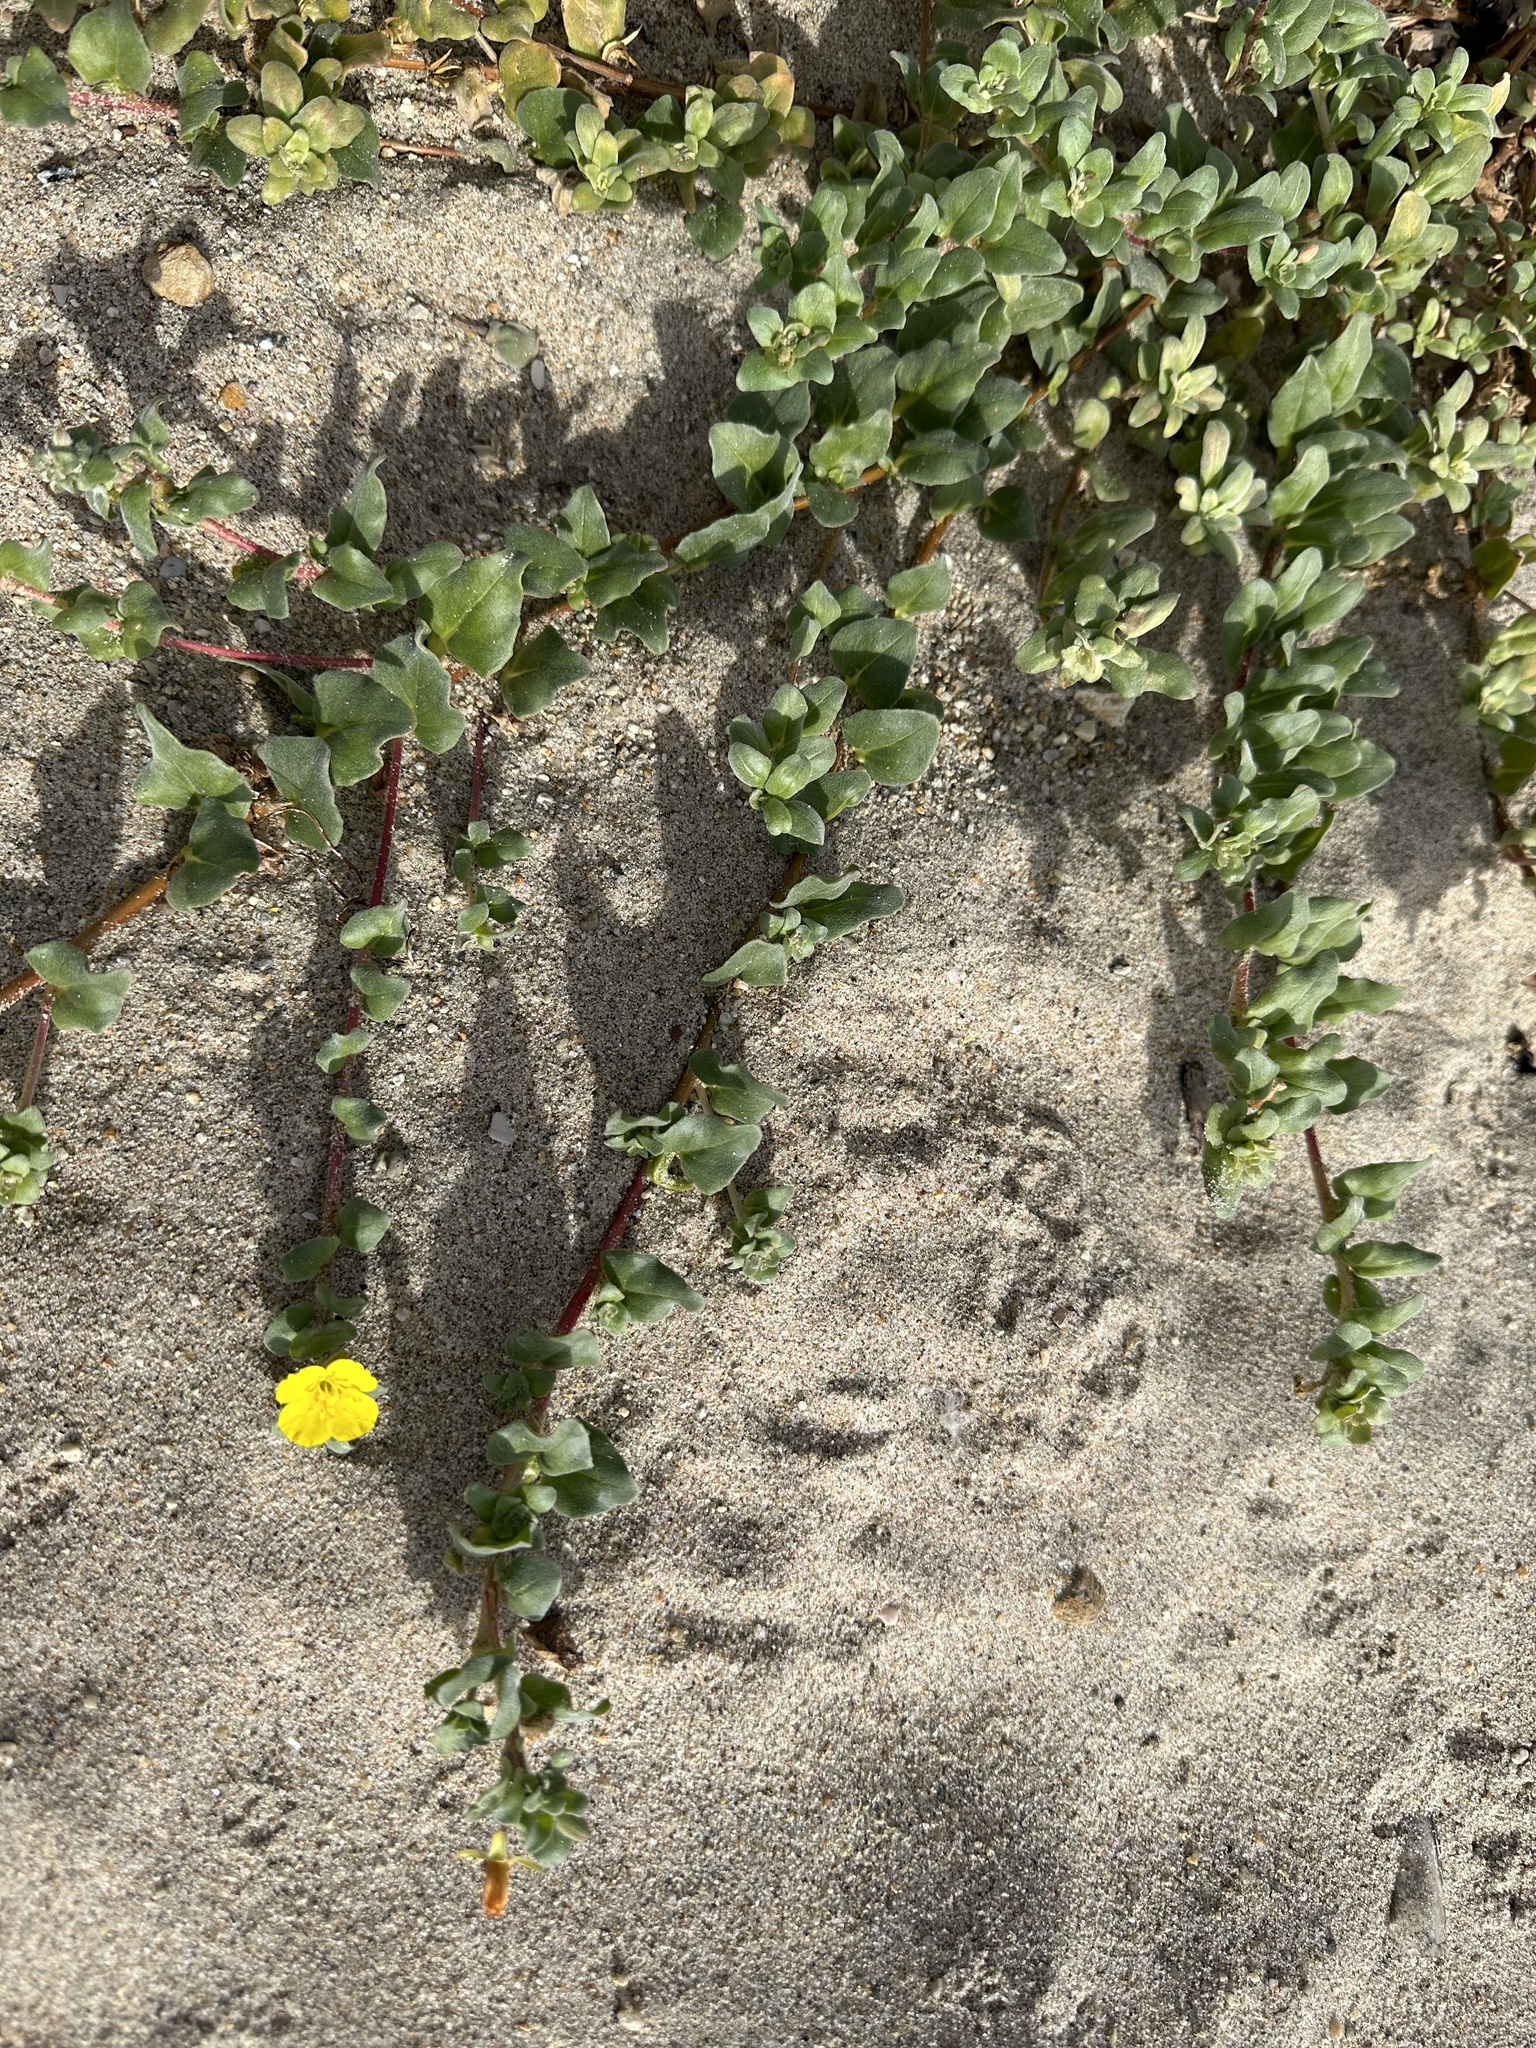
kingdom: Plantae
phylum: Tracheophyta
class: Magnoliopsida
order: Myrtales
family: Onagraceae
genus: Camissoniopsis
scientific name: Camissoniopsis cheiranthifolia
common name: Beach suncup
